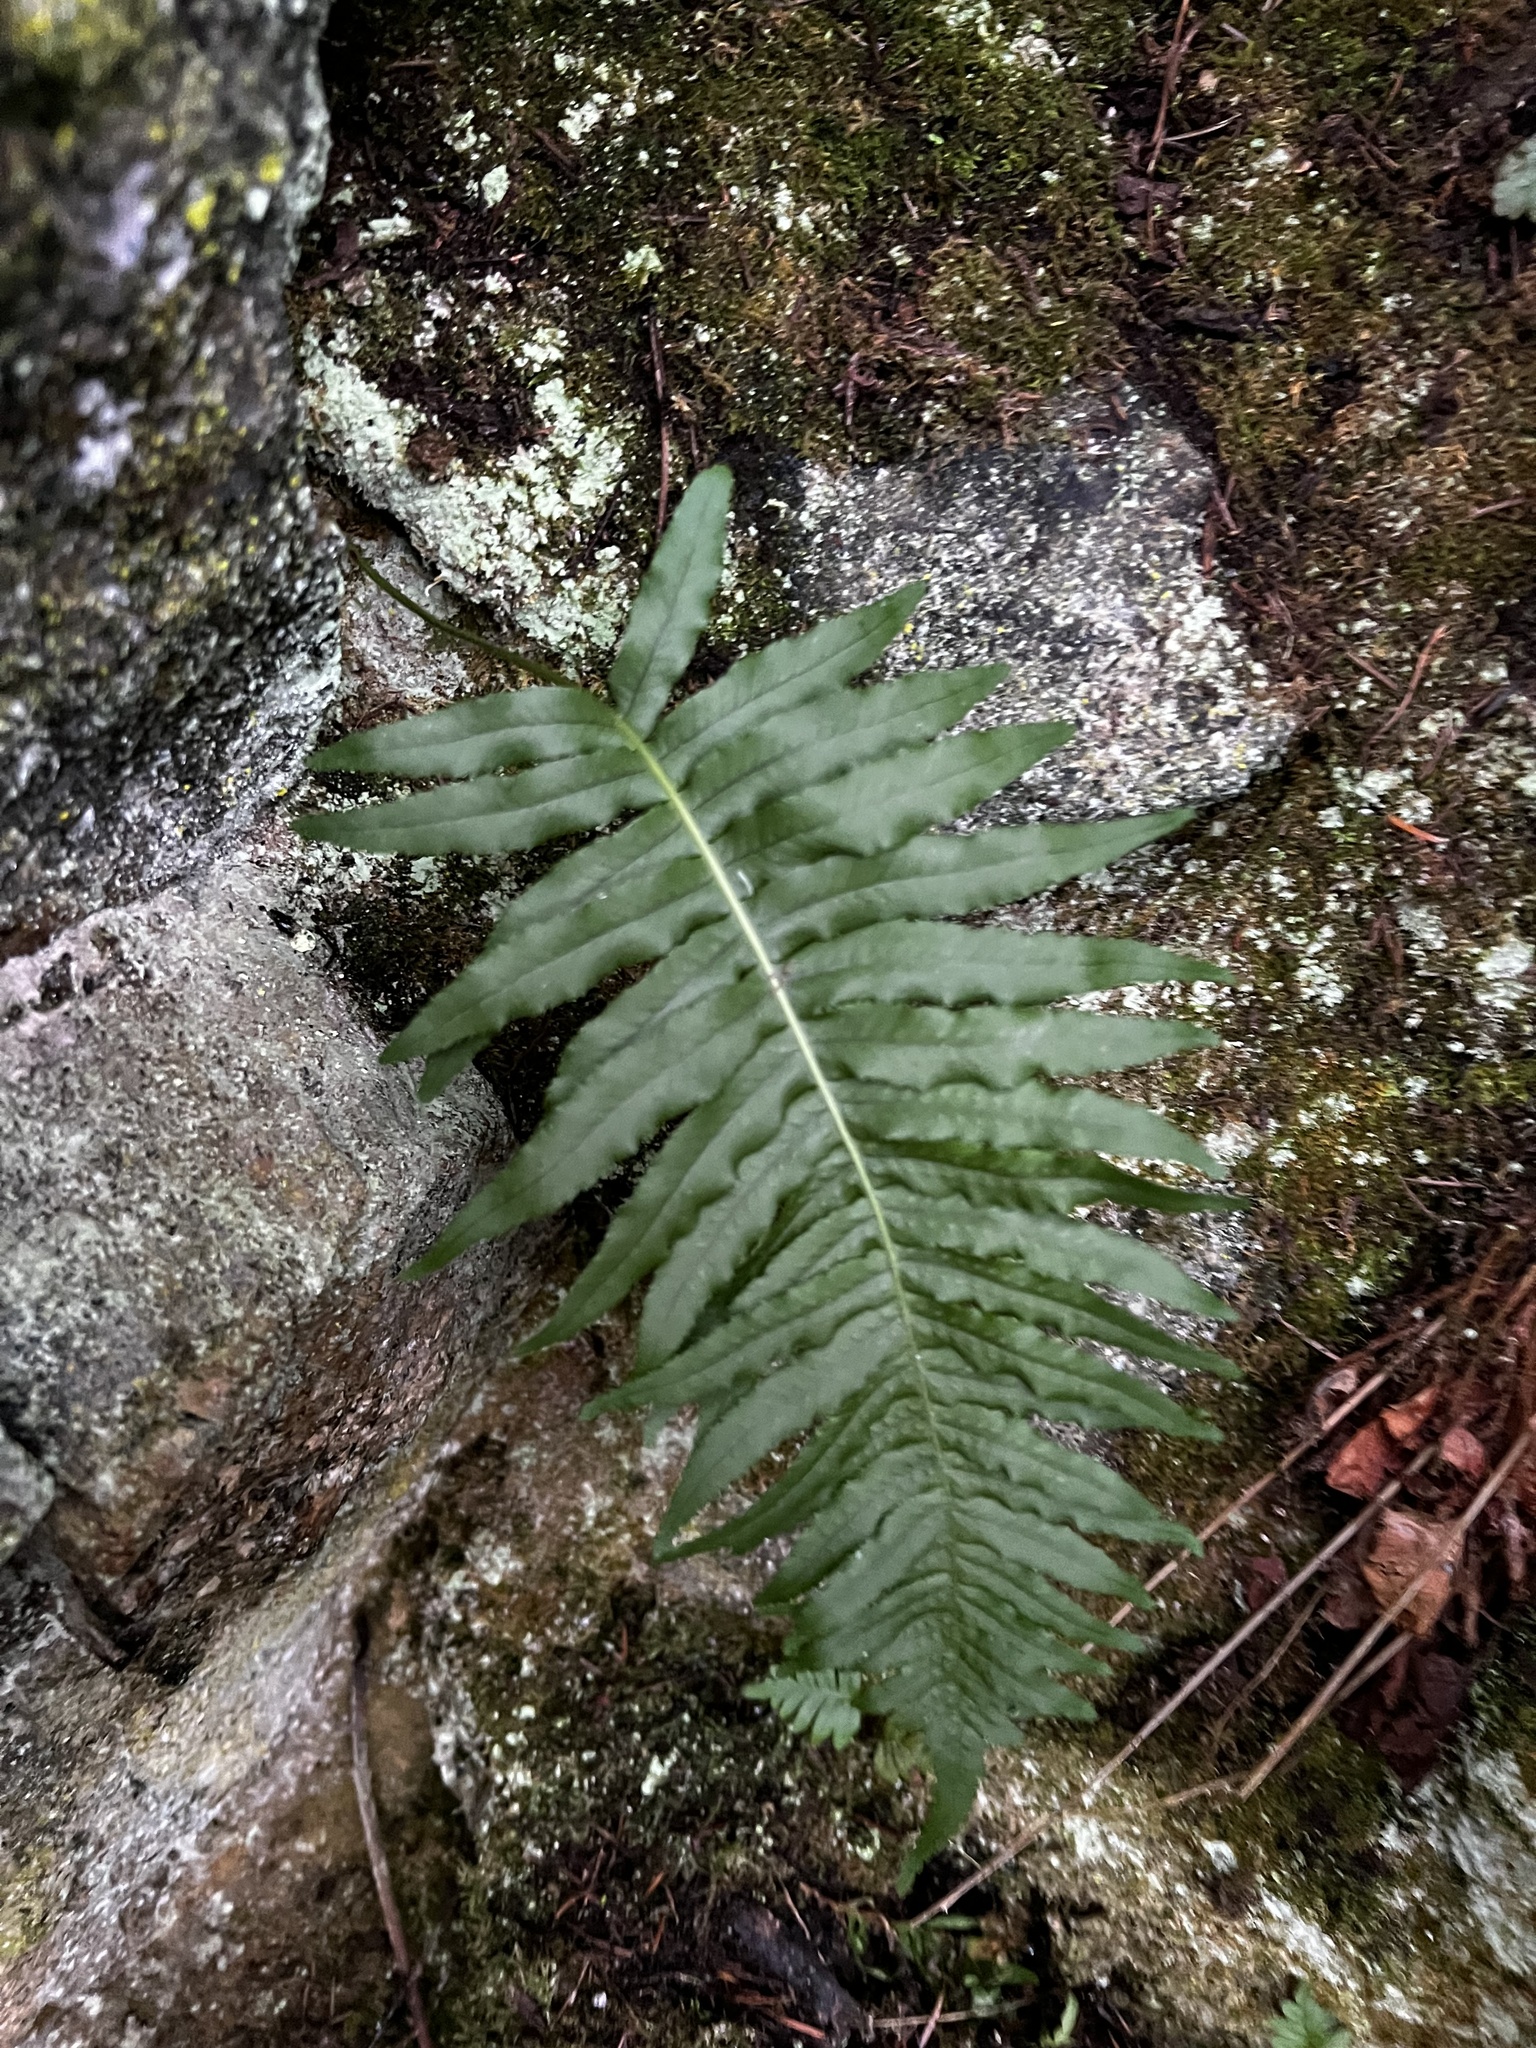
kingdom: Plantae
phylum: Tracheophyta
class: Polypodiopsida
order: Polypodiales
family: Polypodiaceae
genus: Polypodium
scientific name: Polypodium glycyrrhiza
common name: Licorice fern
